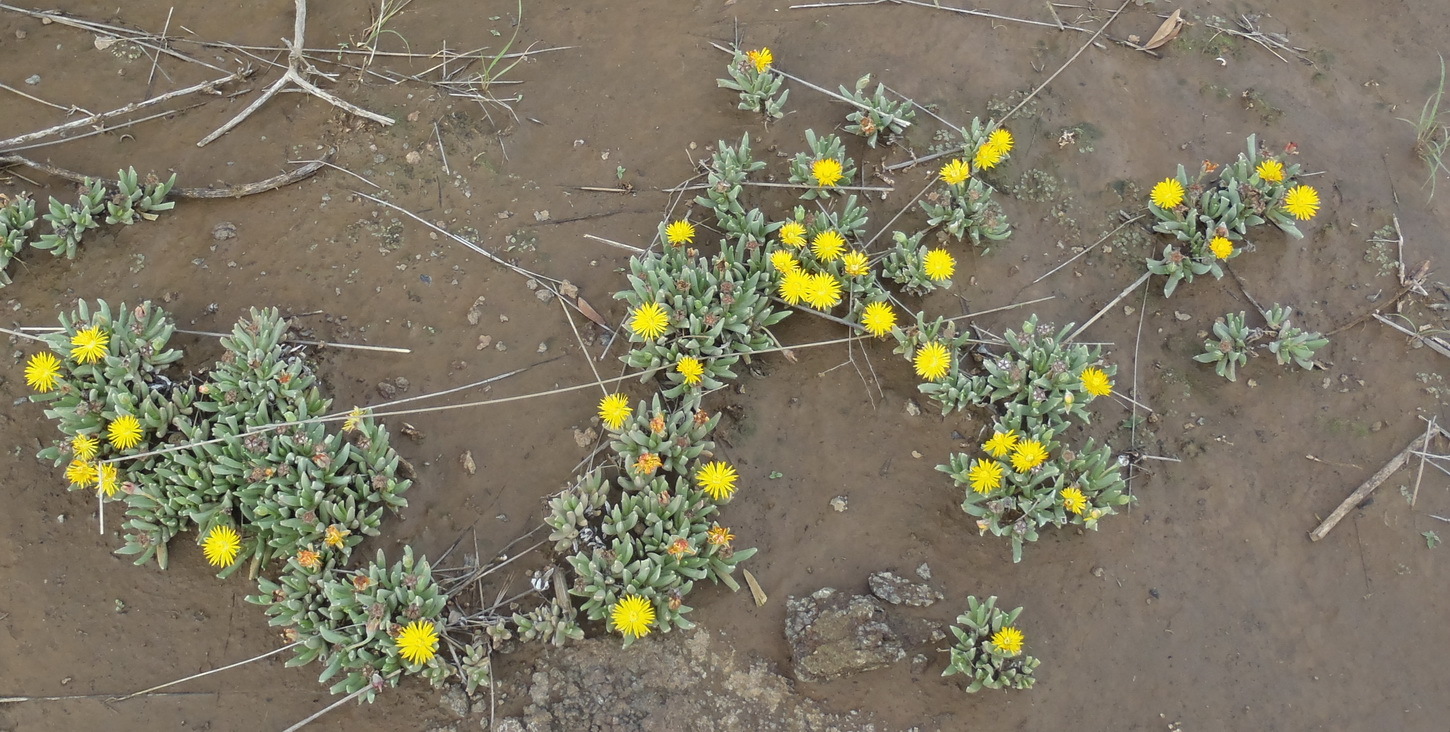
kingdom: Plantae
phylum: Tracheophyta
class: Magnoliopsida
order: Caryophyllales
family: Aizoaceae
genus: Dracophilus
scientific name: Dracophilus Chasmatophyllum musculinum
